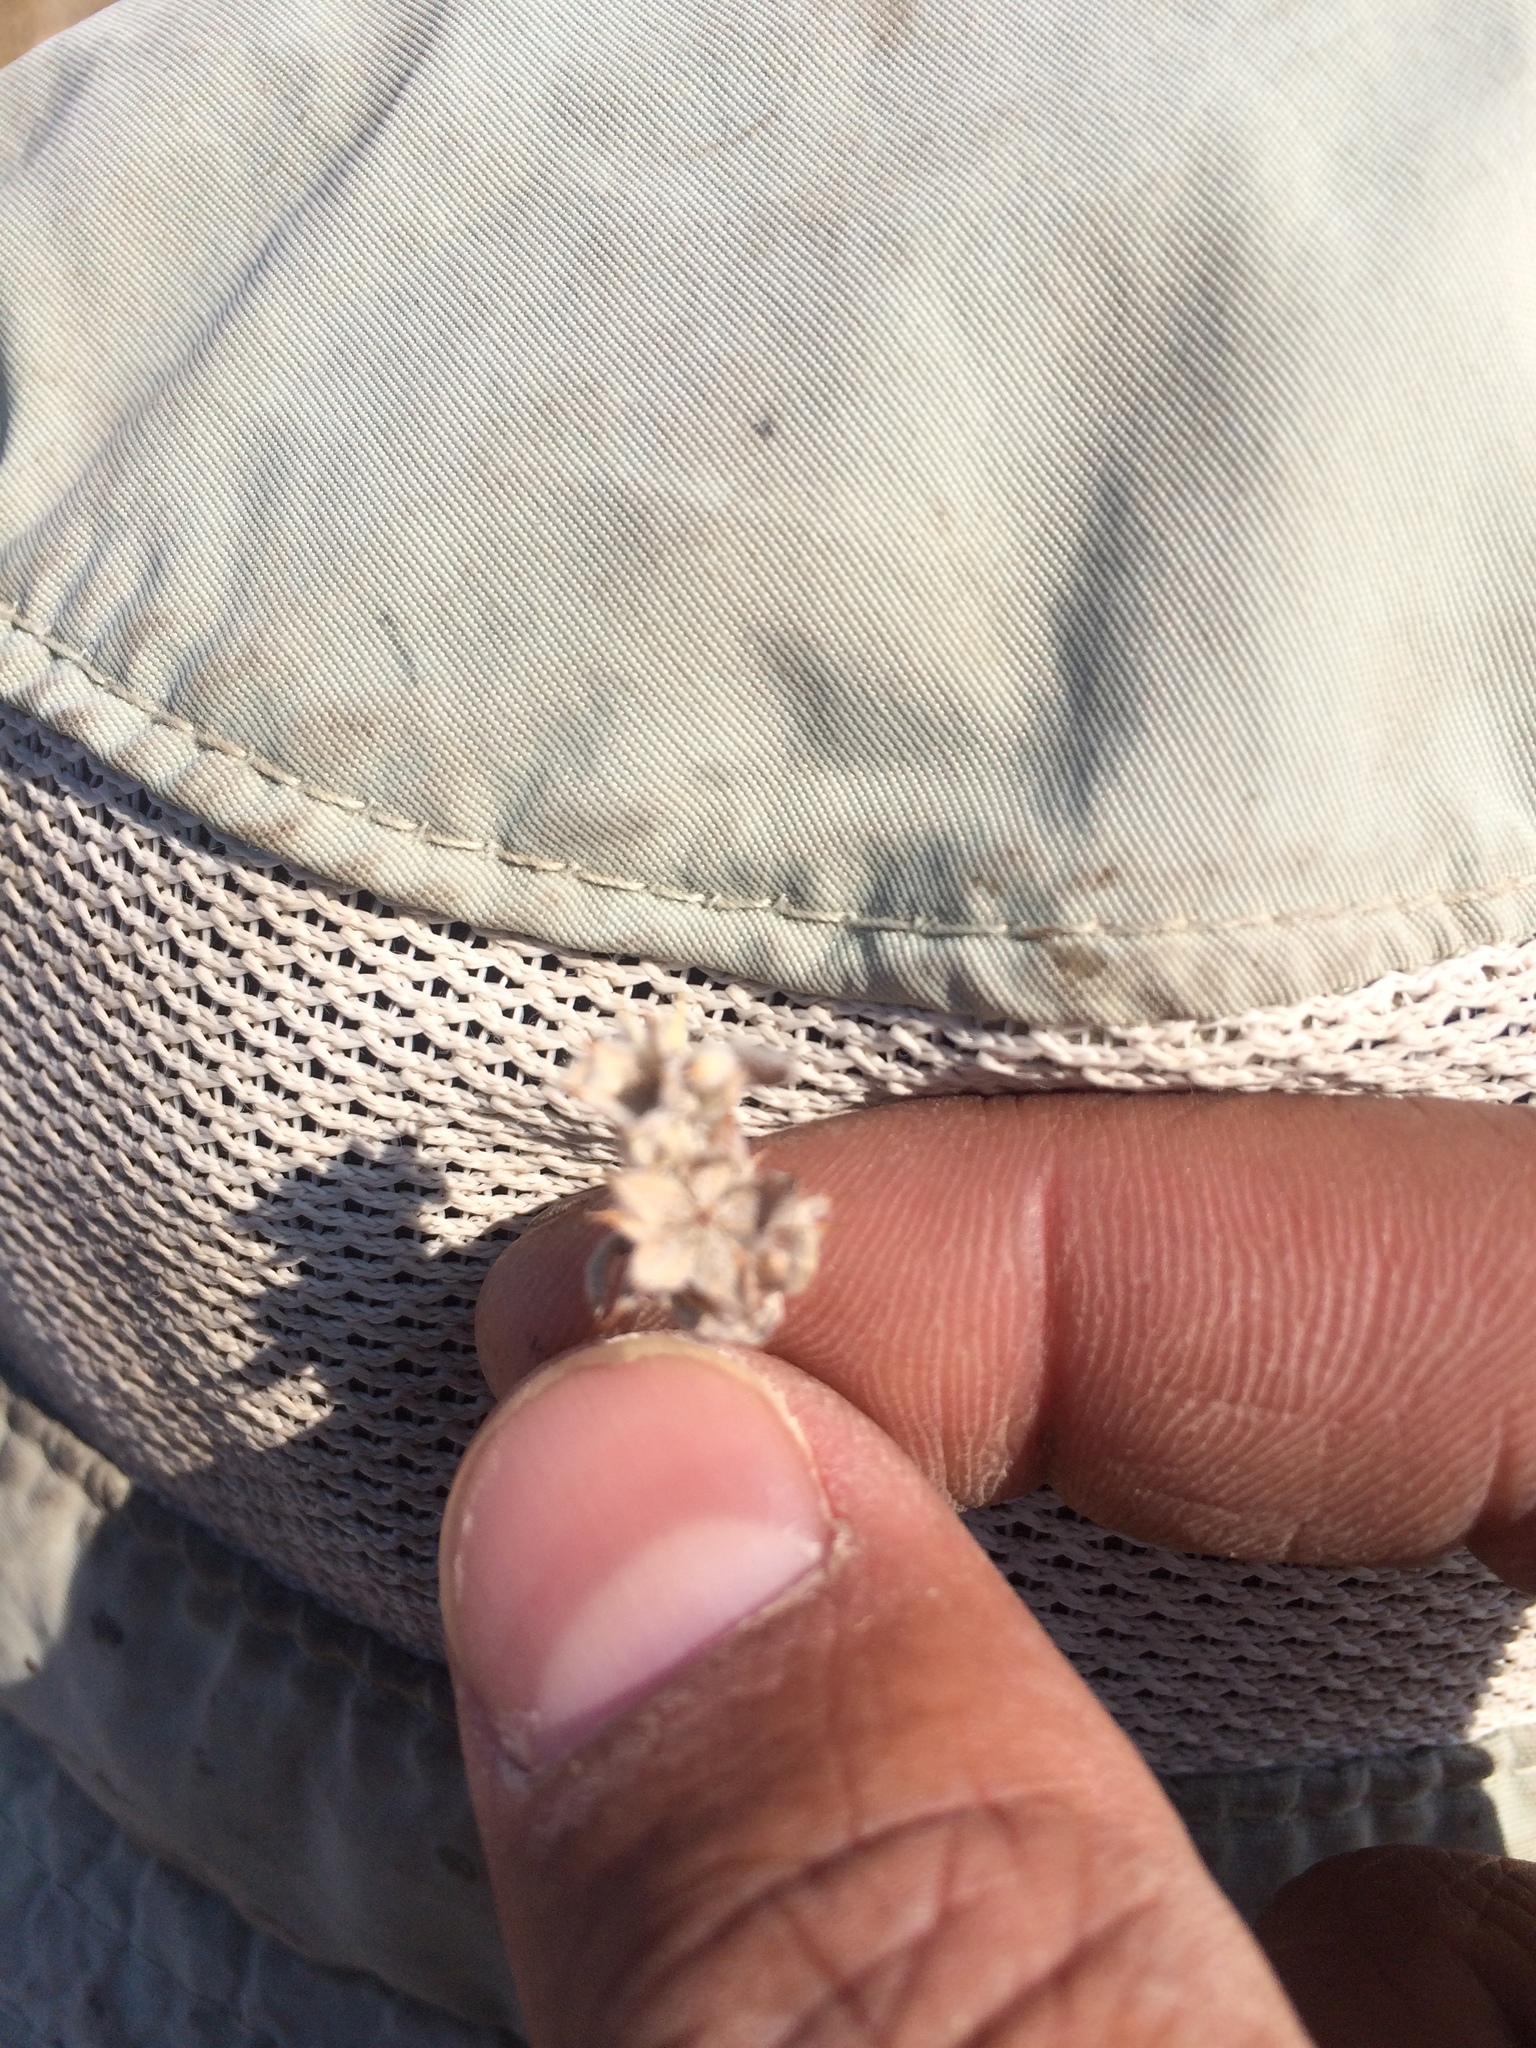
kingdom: Plantae
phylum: Tracheophyta
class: Magnoliopsida
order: Asterales
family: Asteraceae
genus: Ancistrocarphus
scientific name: Ancistrocarphus filagineus
